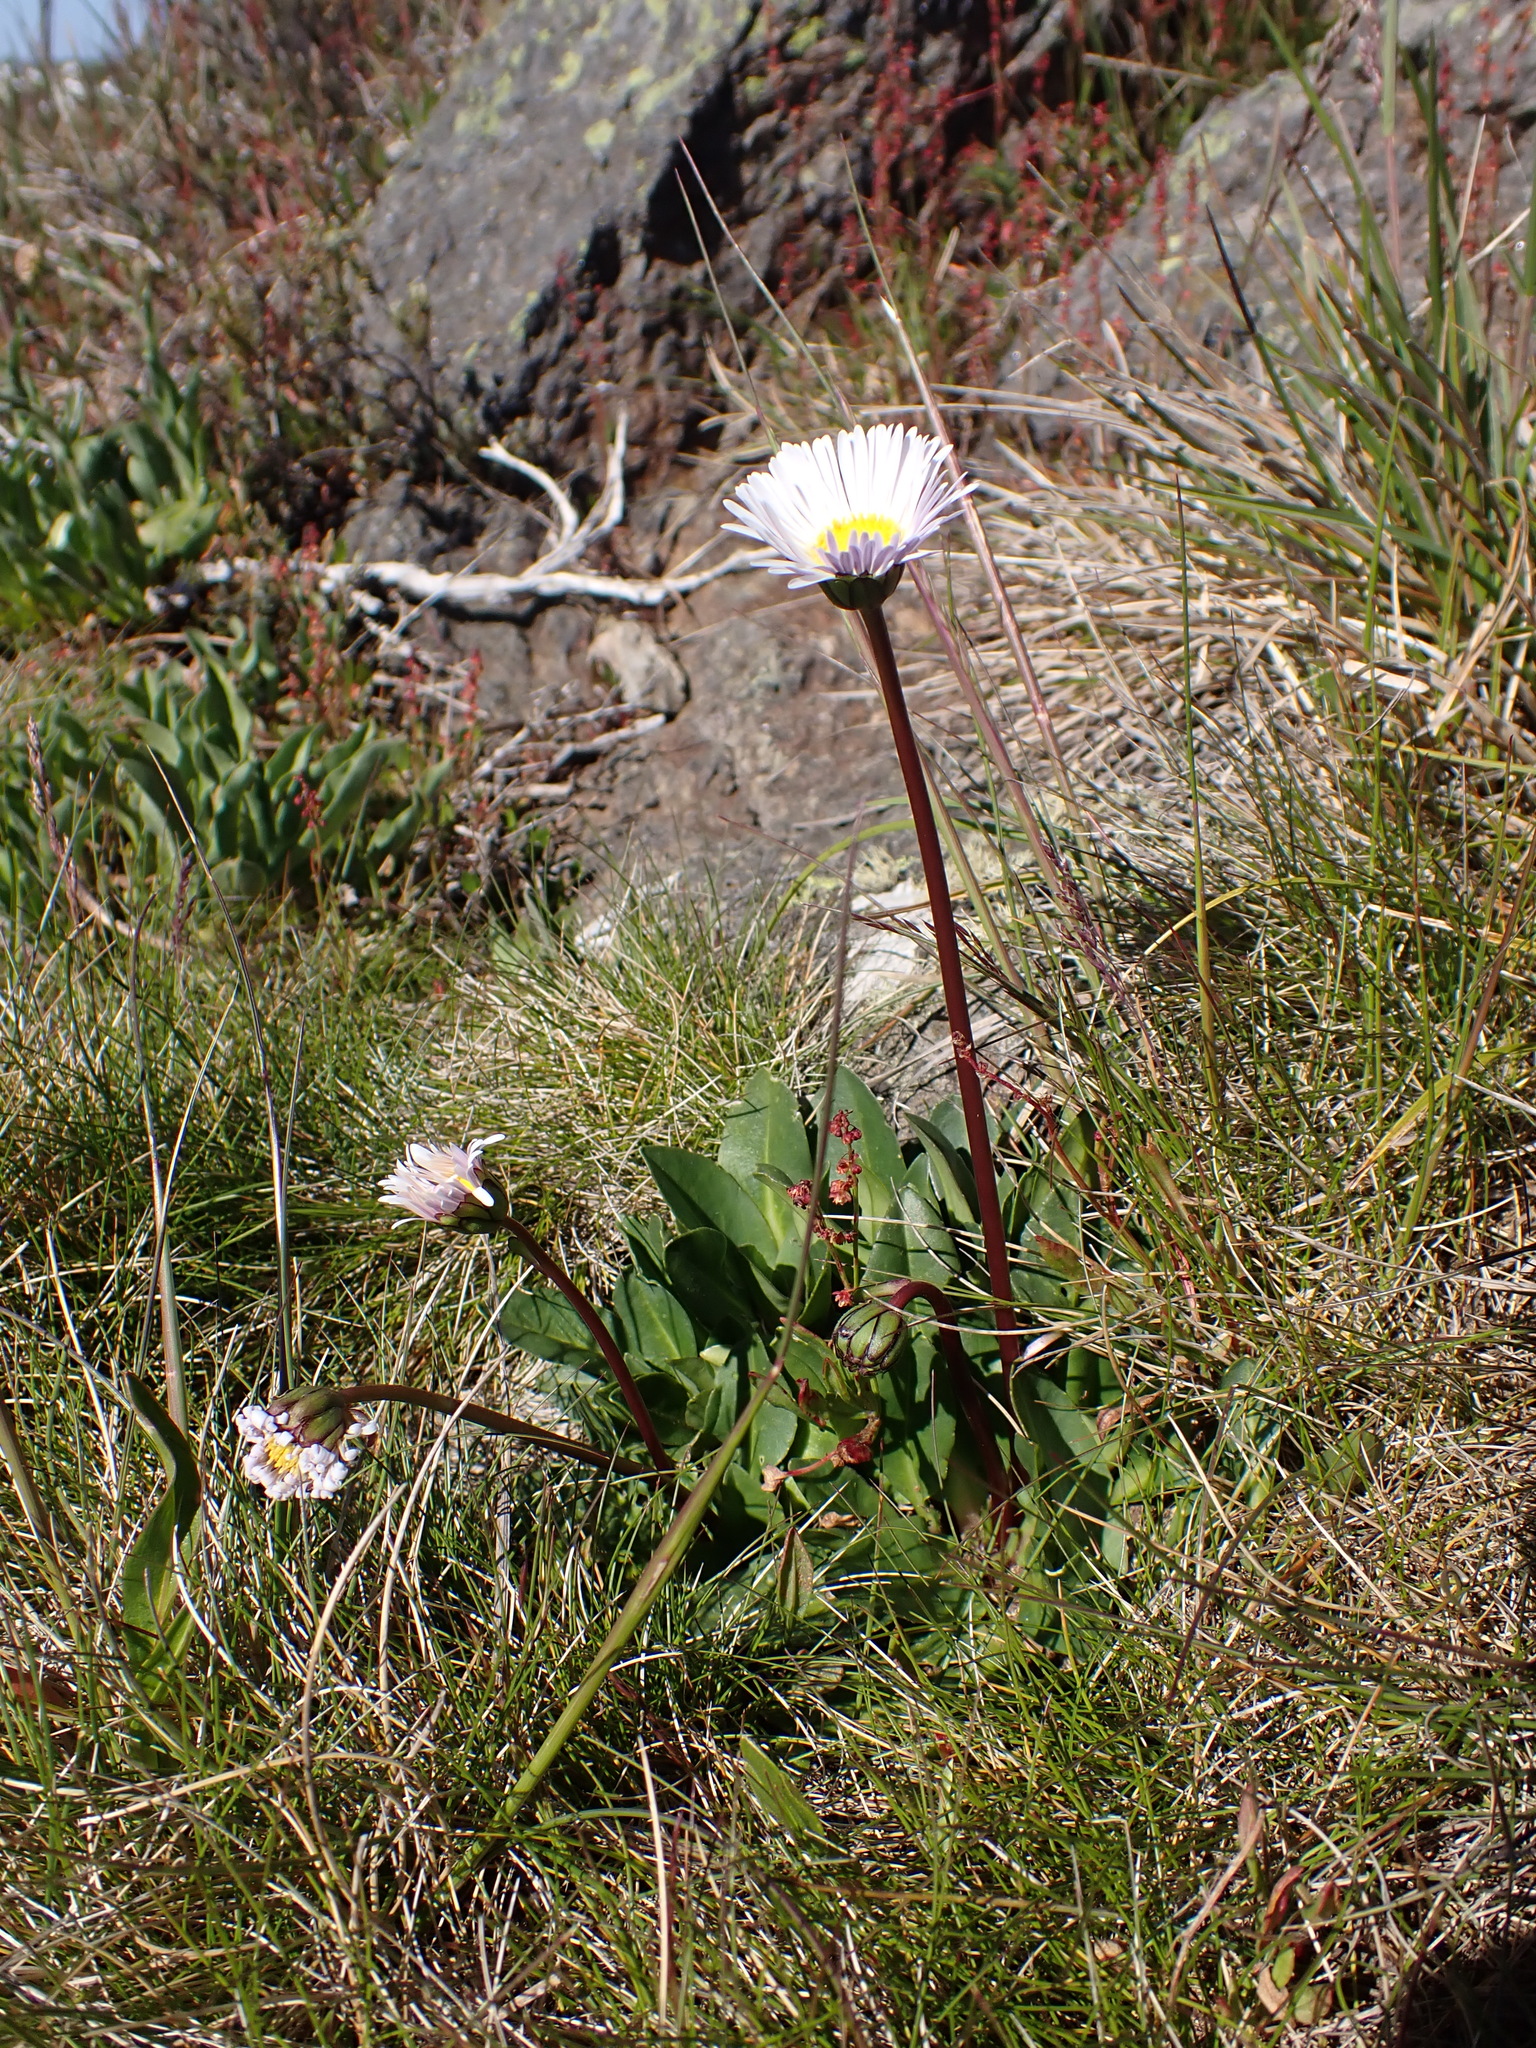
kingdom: Plantae
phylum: Tracheophyta
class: Magnoliopsida
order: Asterales
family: Asteraceae
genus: Brachyscome
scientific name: Brachyscome decipiens
